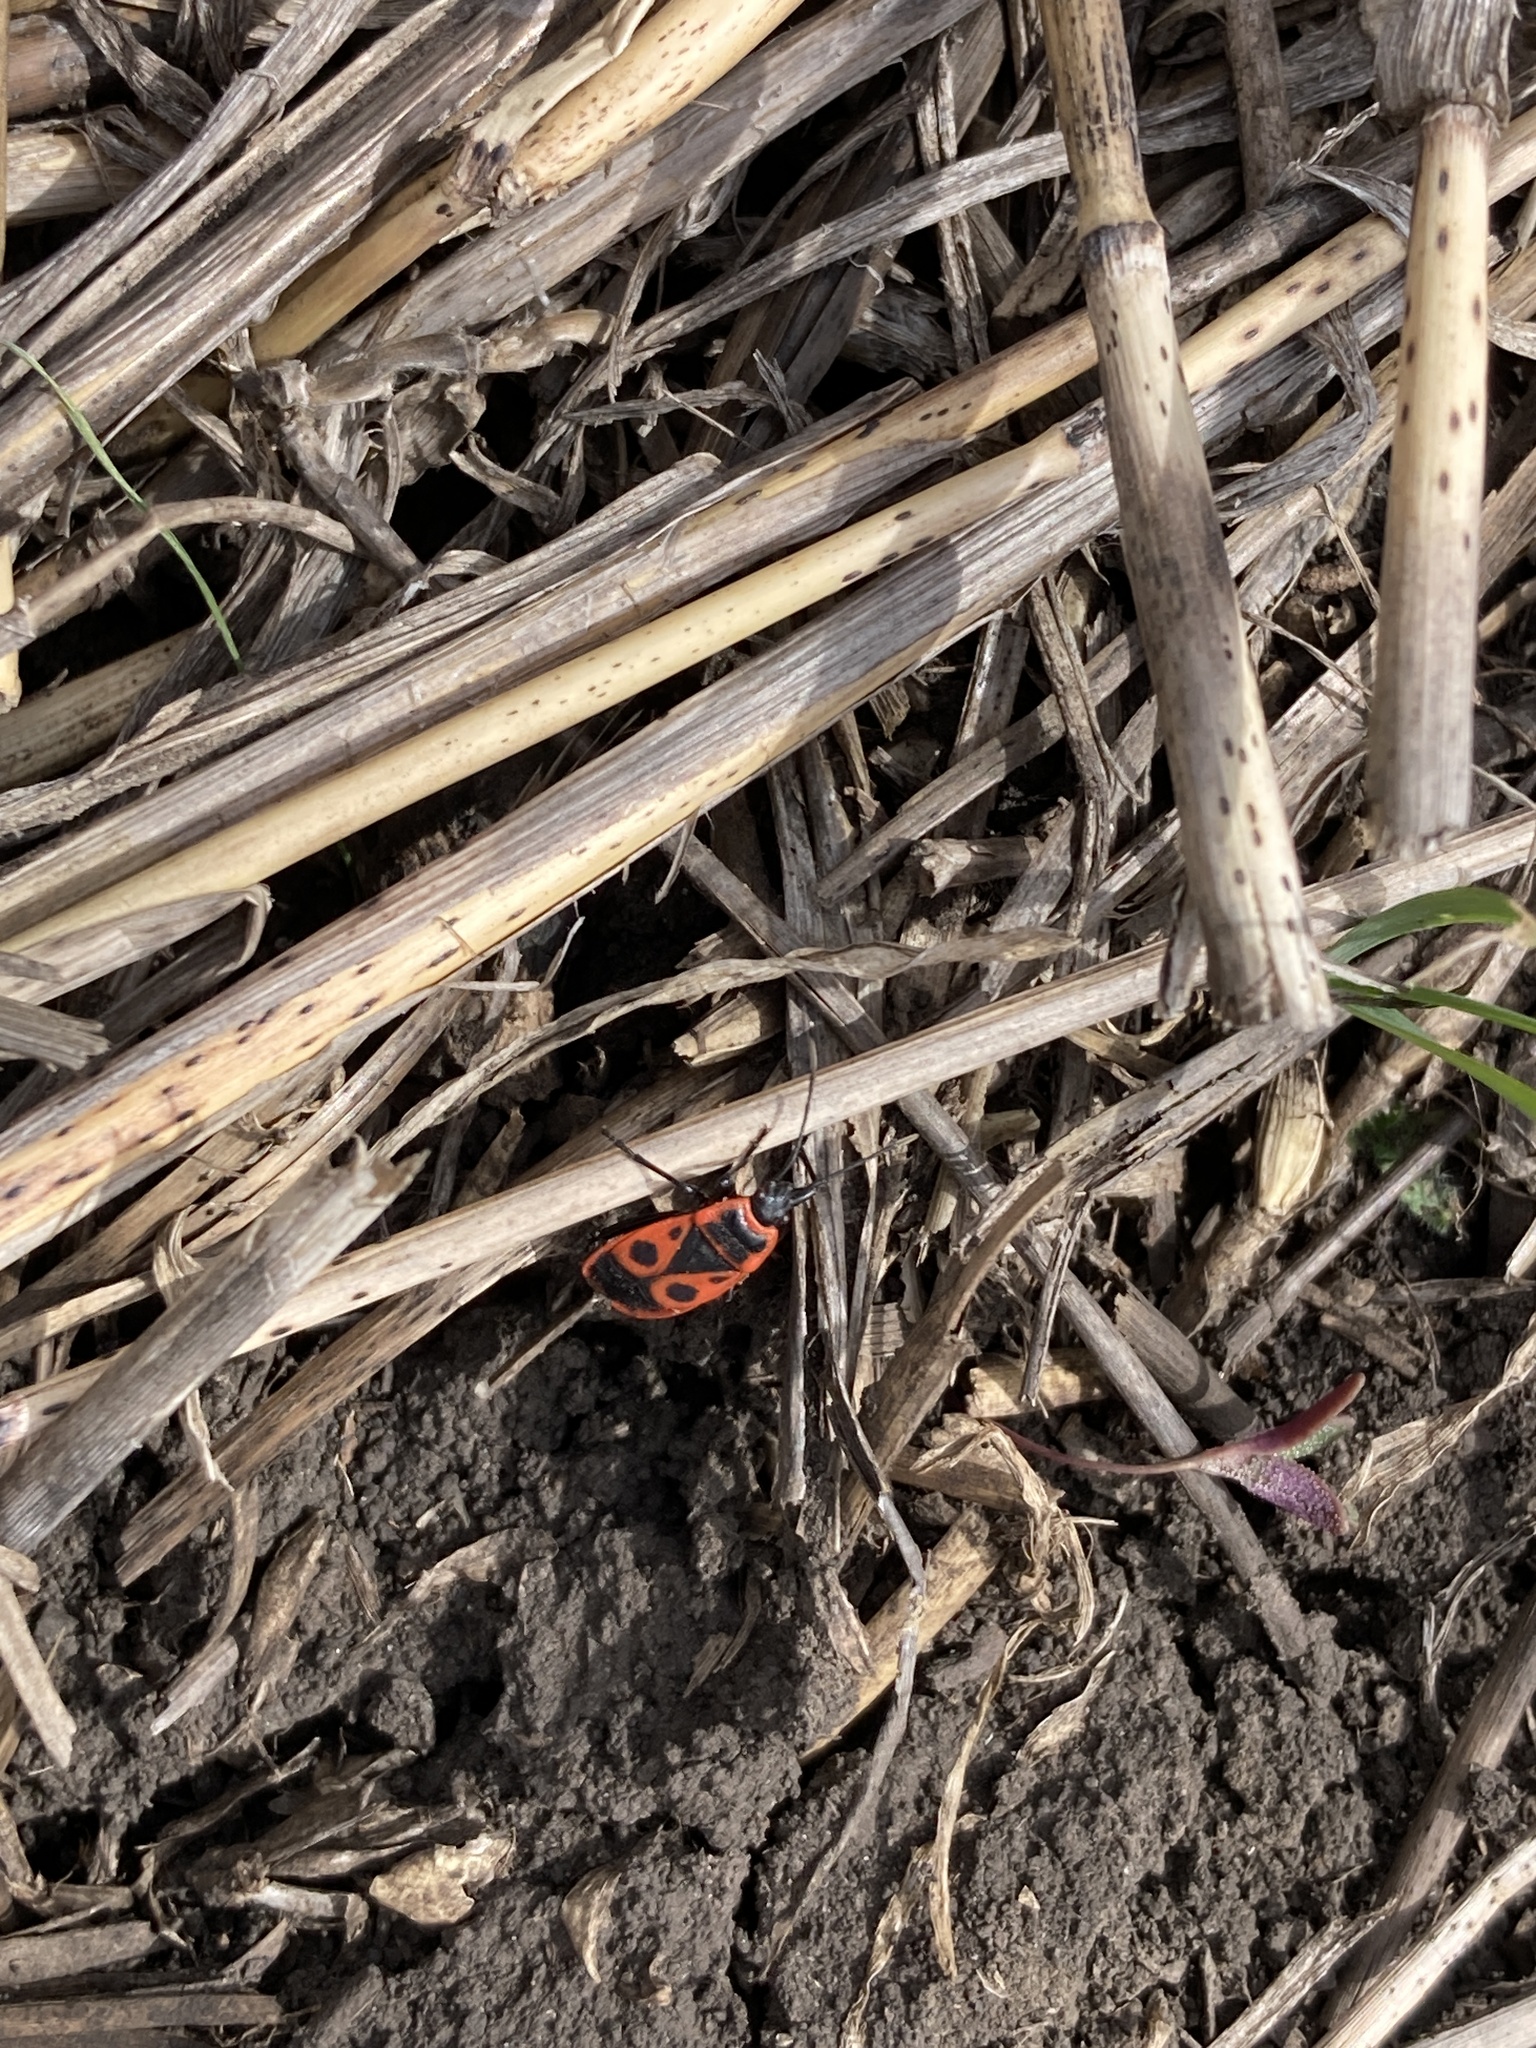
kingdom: Animalia
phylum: Arthropoda
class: Insecta
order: Hemiptera
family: Pyrrhocoridae
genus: Pyrrhocoris
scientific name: Pyrrhocoris apterus
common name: Firebug
